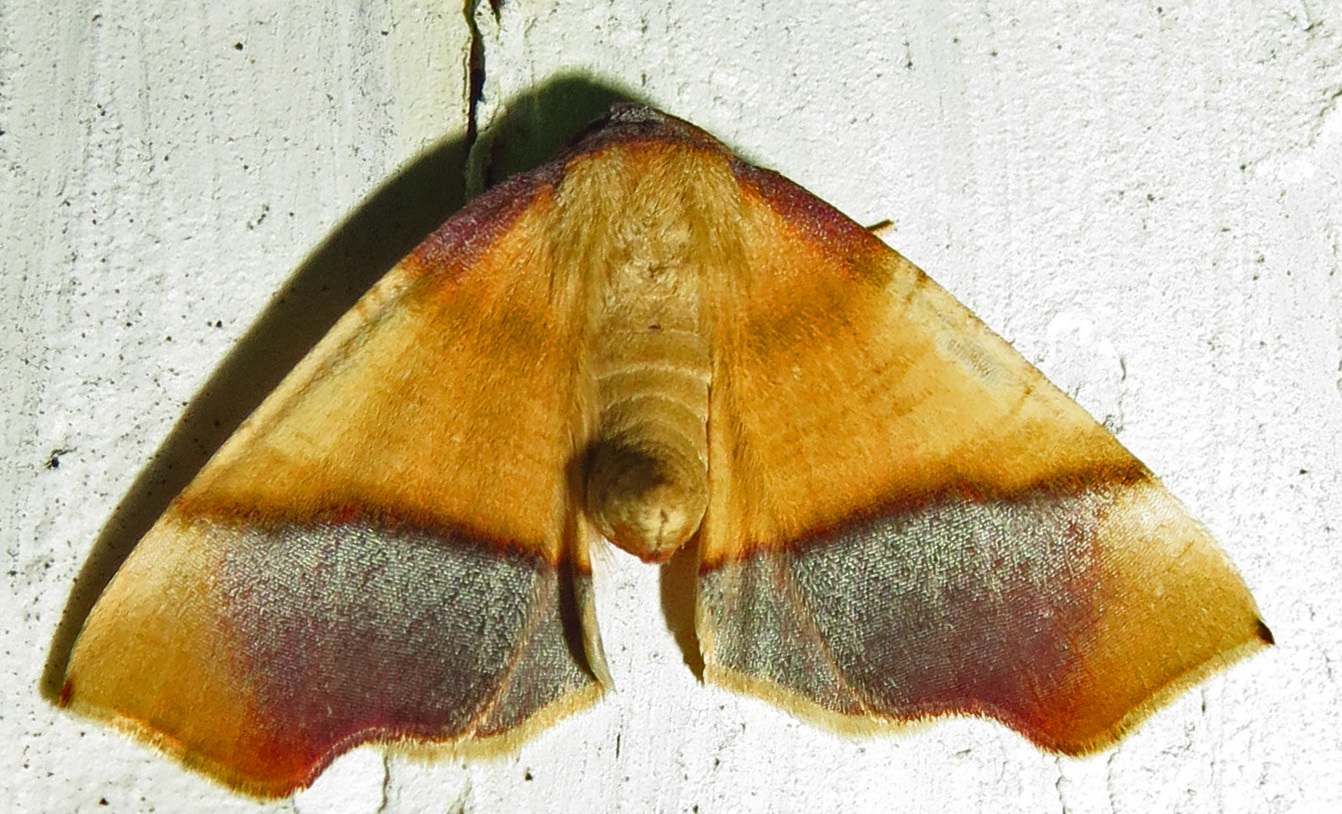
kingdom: Animalia
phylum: Arthropoda
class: Insecta
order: Lepidoptera
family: Geometridae
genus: Plagodis
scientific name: Plagodis phlogosaria
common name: Straight-lined plagodis
